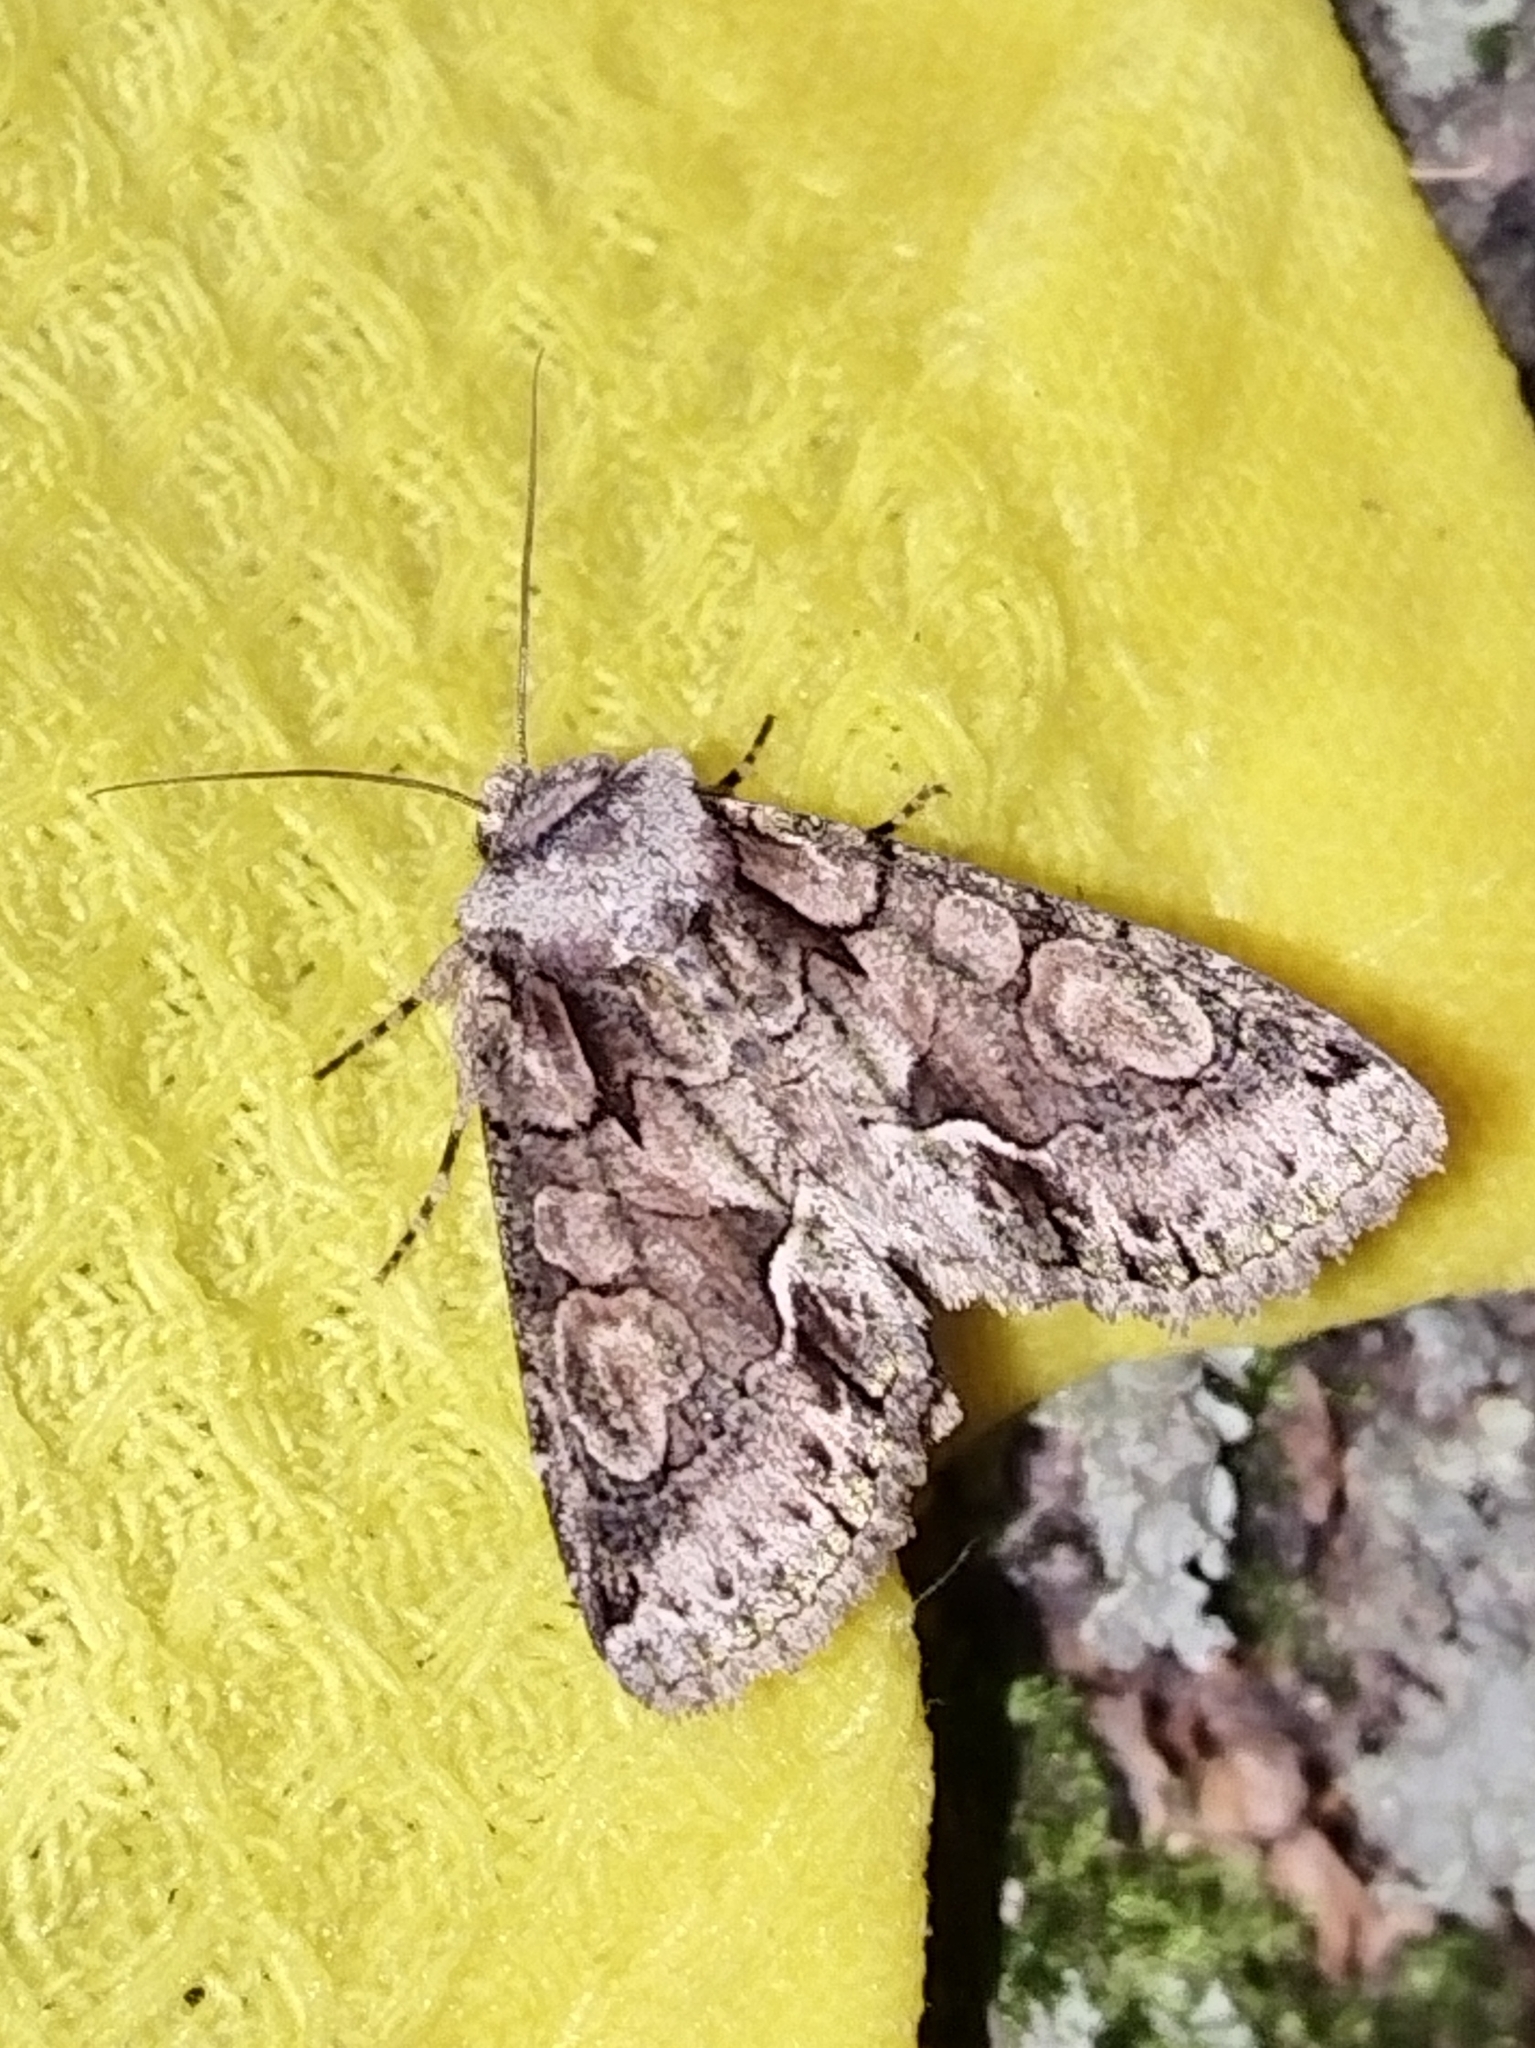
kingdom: Animalia
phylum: Arthropoda
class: Insecta
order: Lepidoptera
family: Noctuidae
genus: Allophyes
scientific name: Allophyes oxyacanthae
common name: Green-brindled crescent
